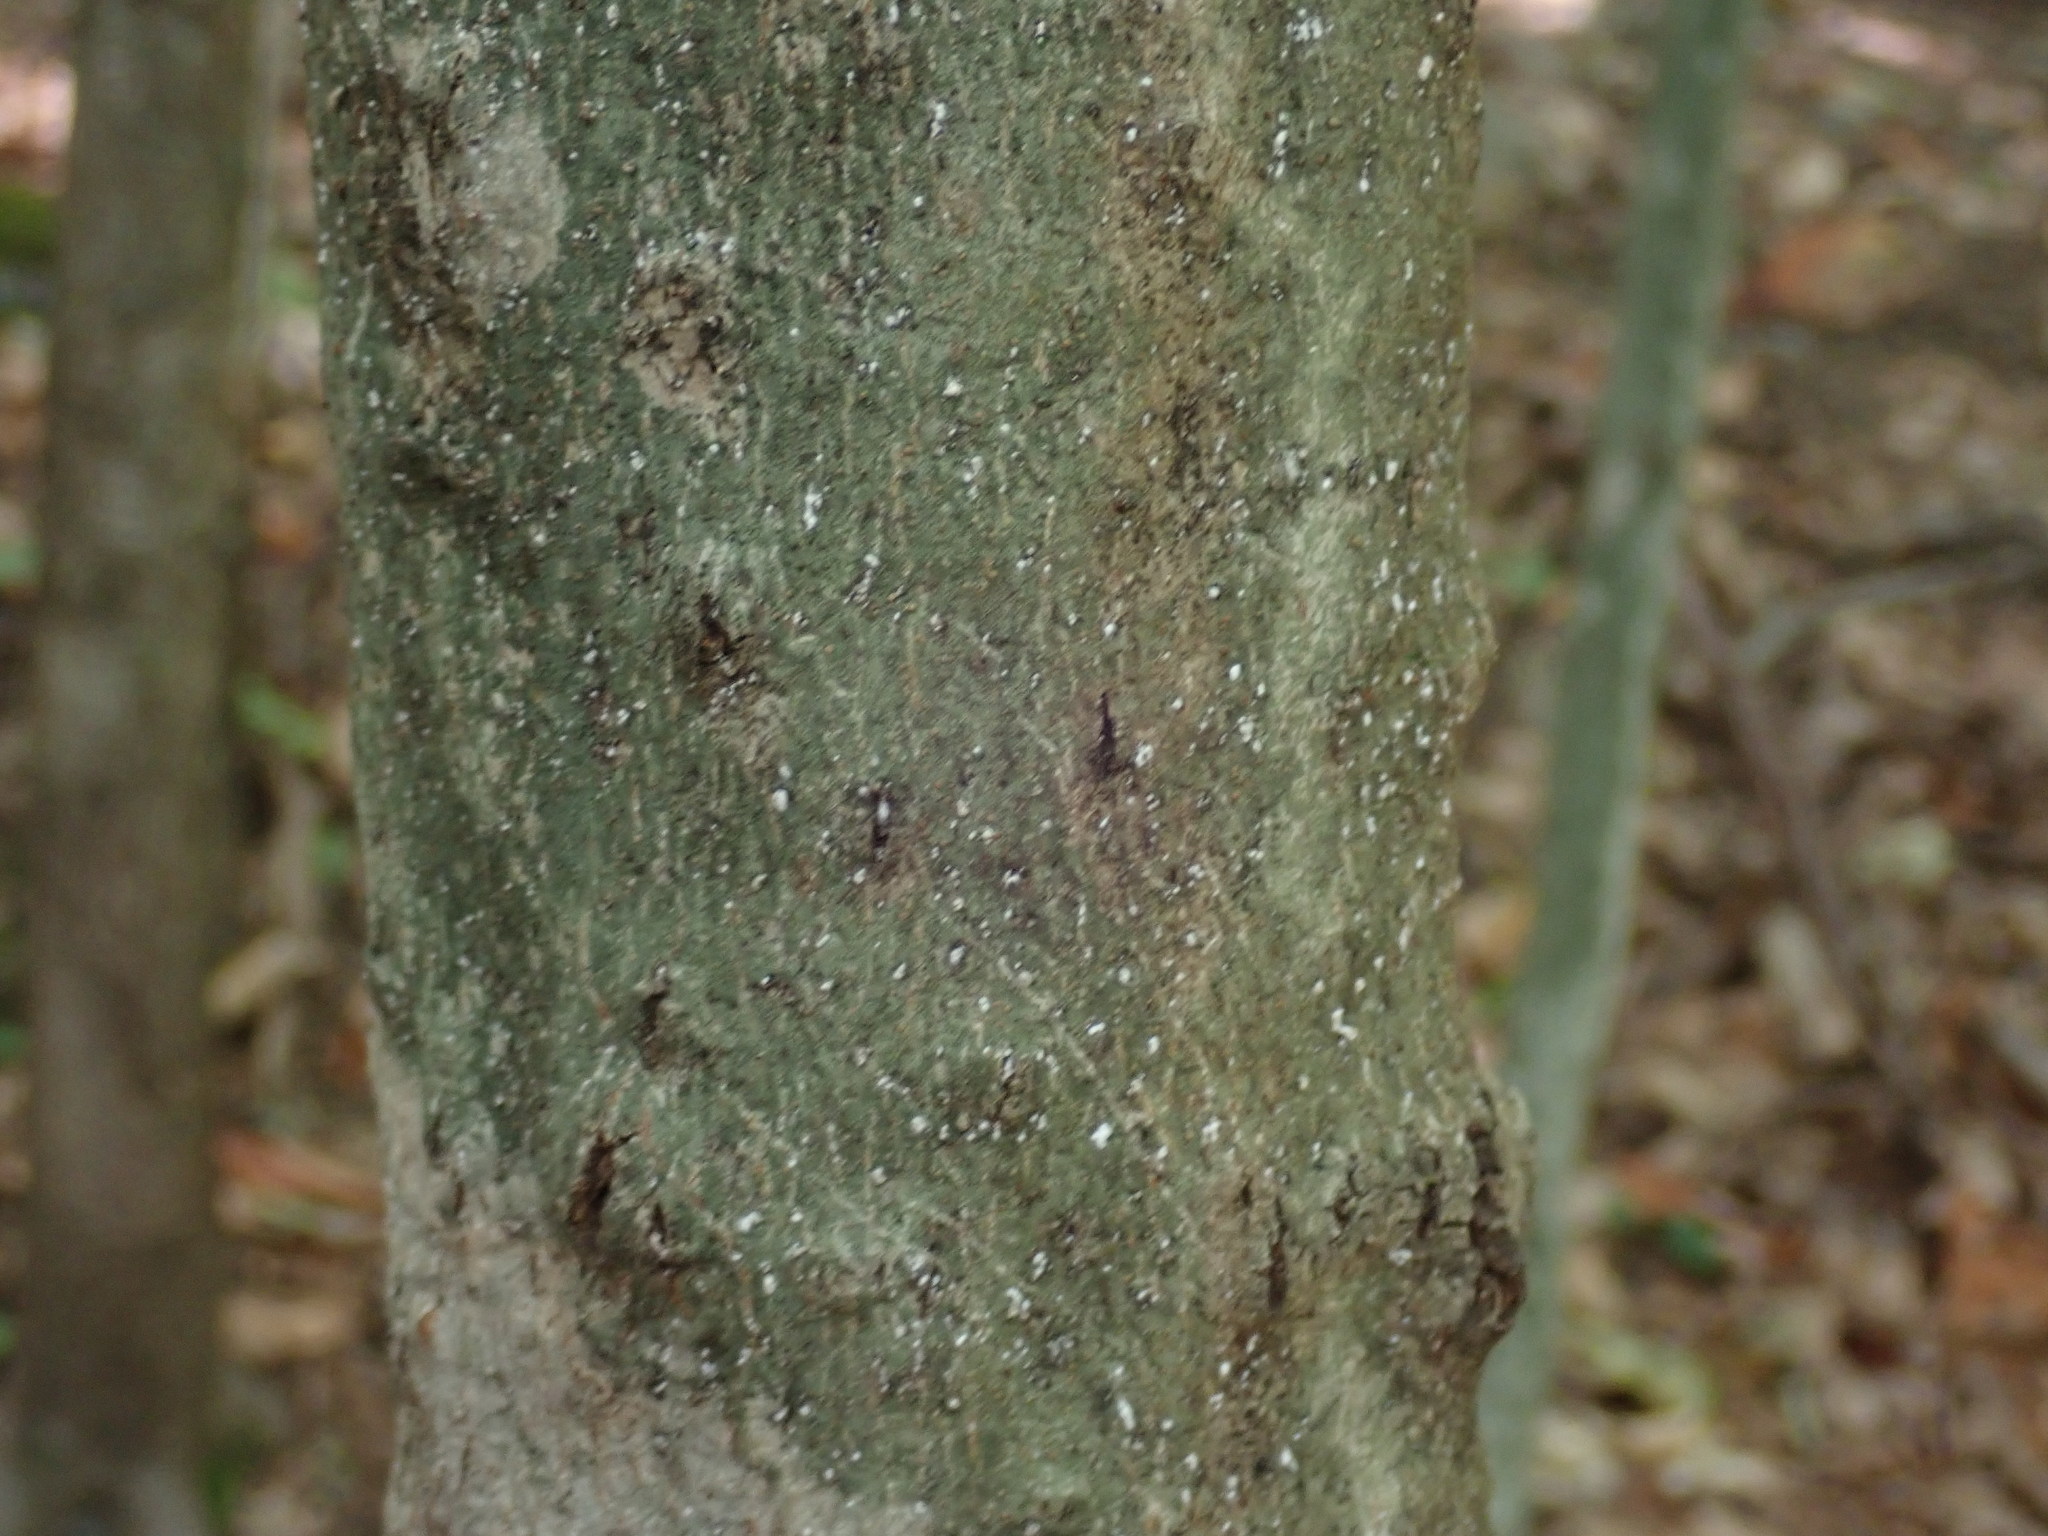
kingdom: Animalia
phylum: Arthropoda
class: Insecta
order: Hemiptera
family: Eriococcidae
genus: Cryptococcus
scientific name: Cryptococcus fagisuga
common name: Beech scale
